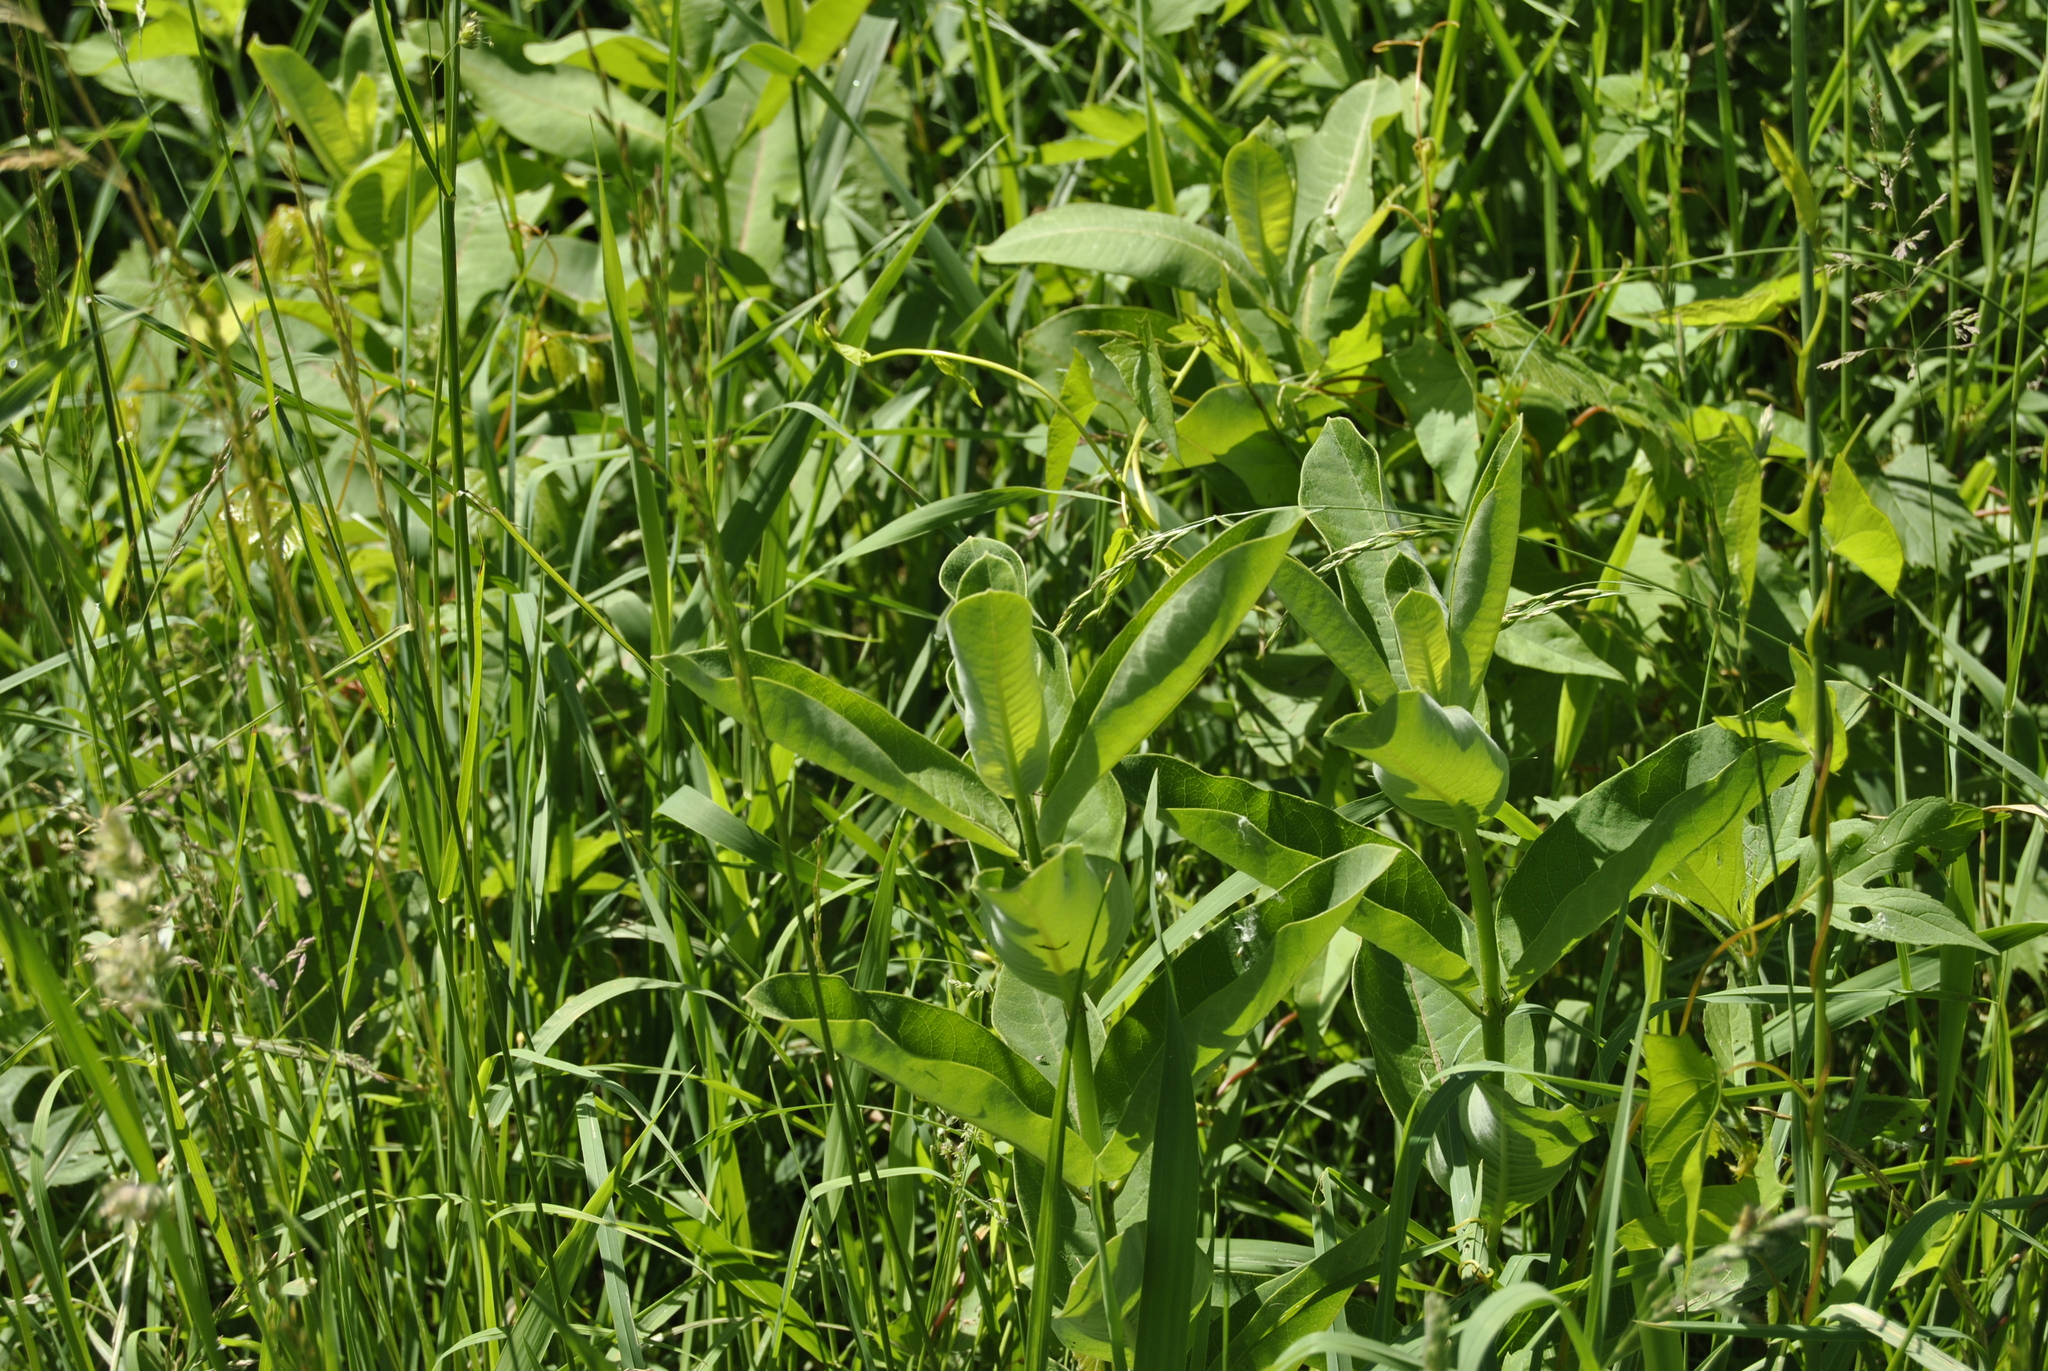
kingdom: Plantae
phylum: Tracheophyta
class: Magnoliopsida
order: Gentianales
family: Apocynaceae
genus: Asclepias
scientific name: Asclepias syriaca
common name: Common milkweed
